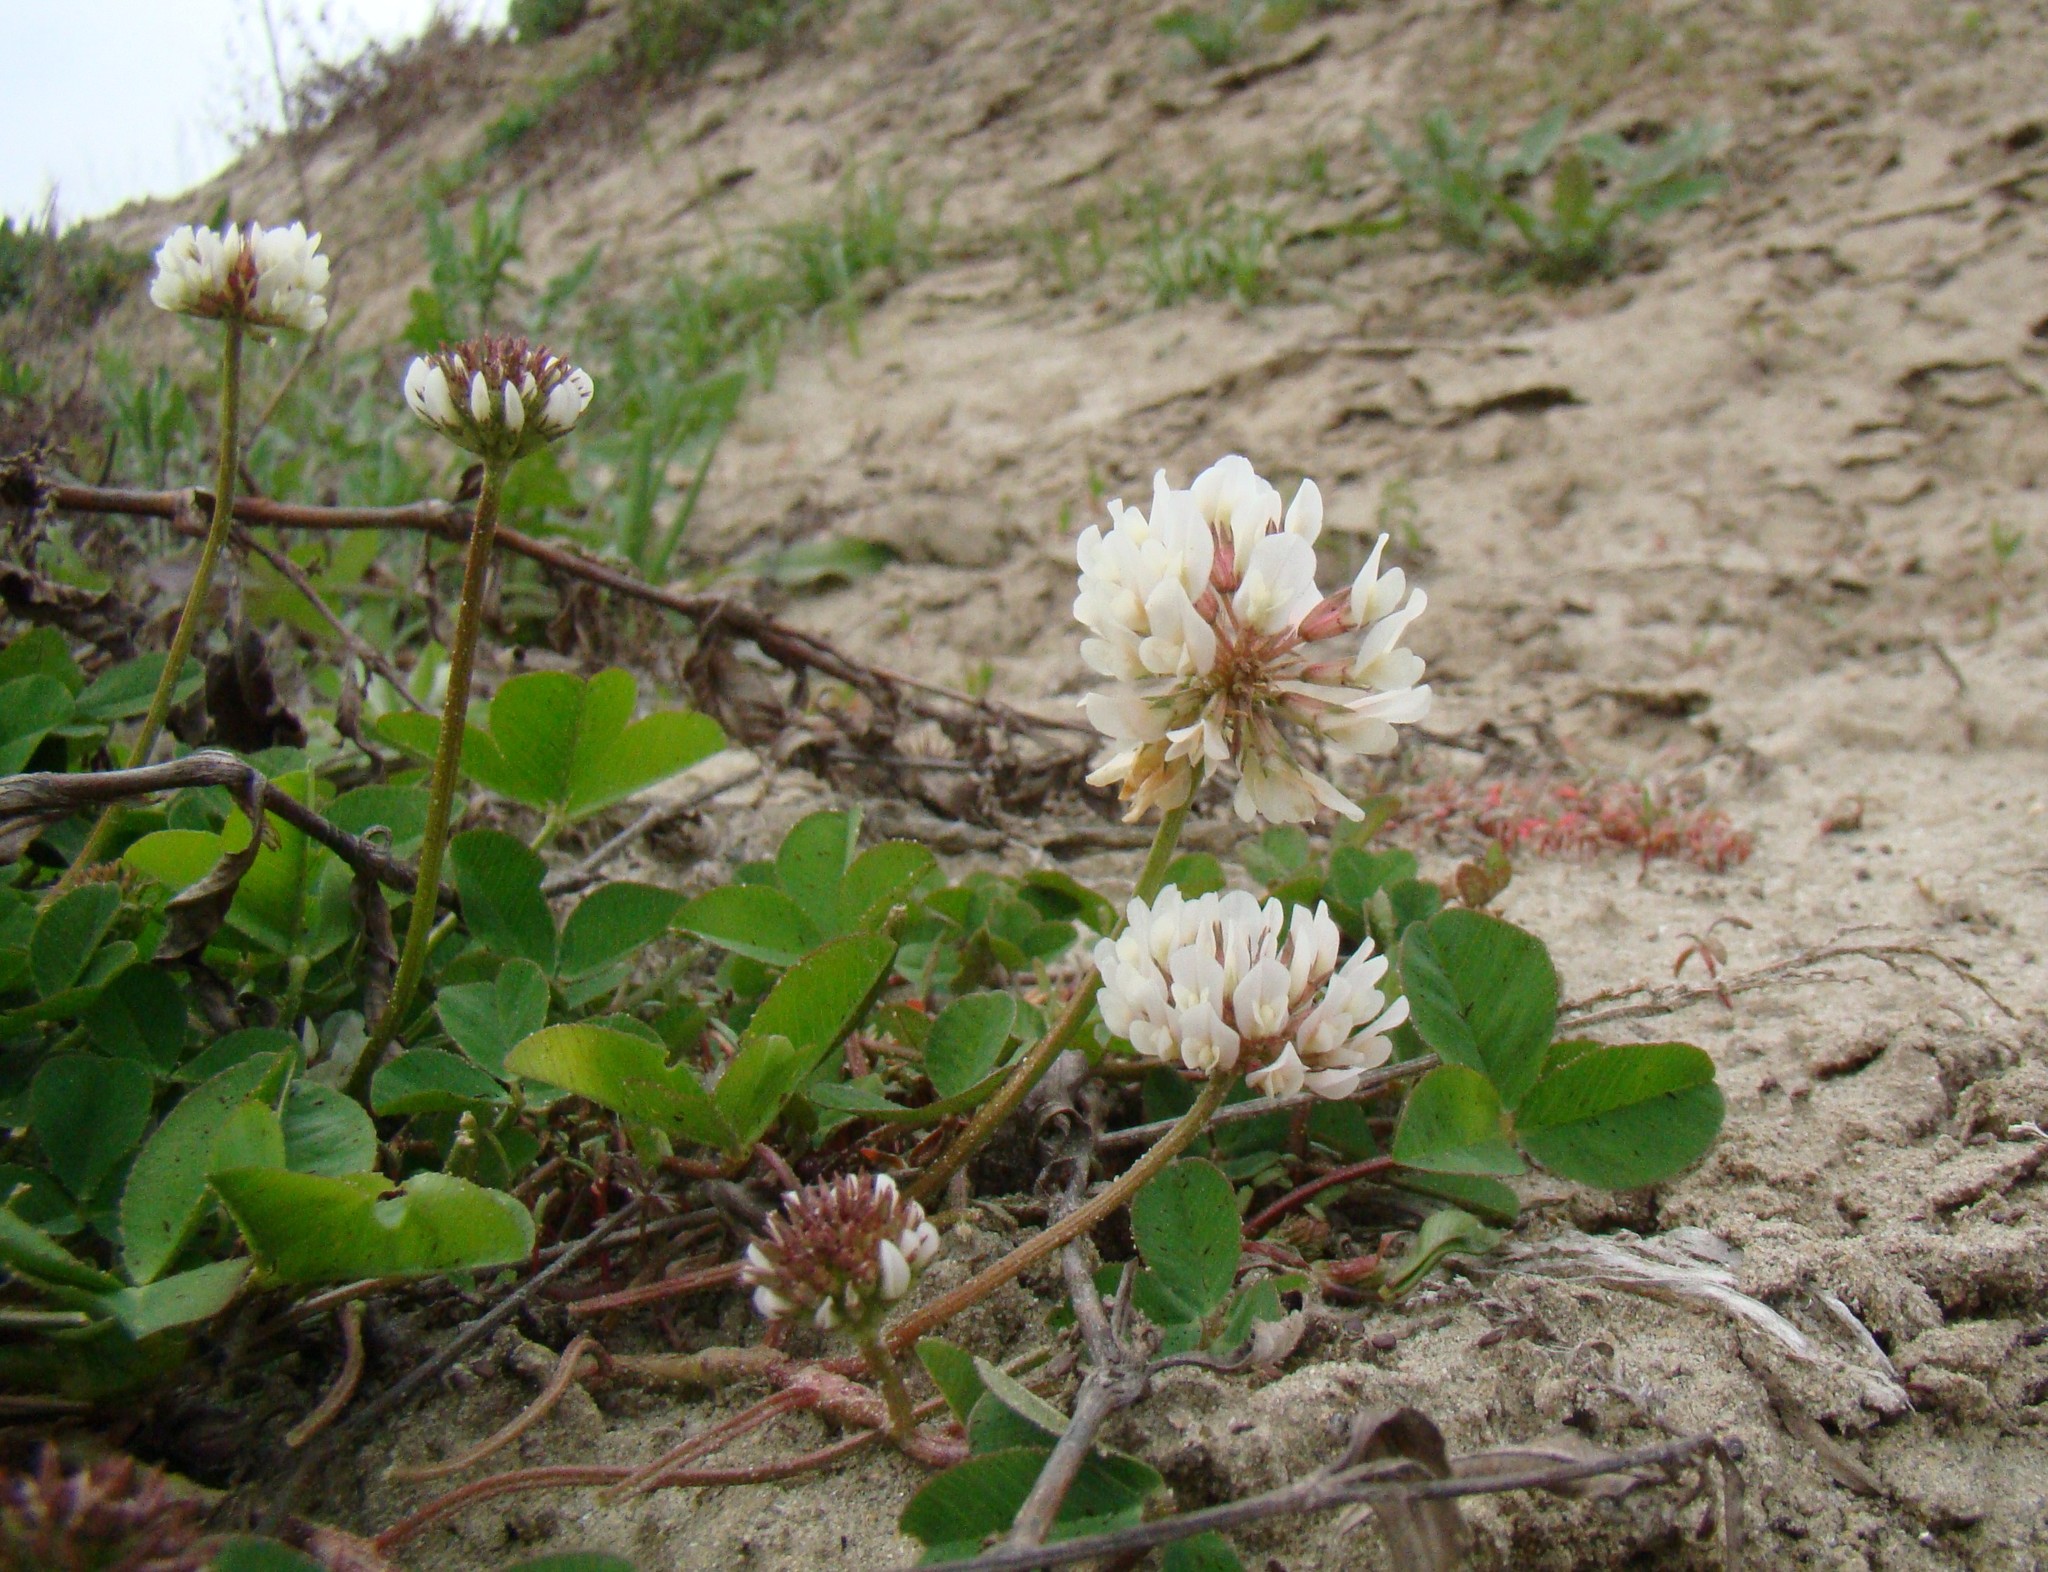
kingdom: Plantae
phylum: Tracheophyta
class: Magnoliopsida
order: Fabales
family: Fabaceae
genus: Trifolium
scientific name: Trifolium repens
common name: White clover
